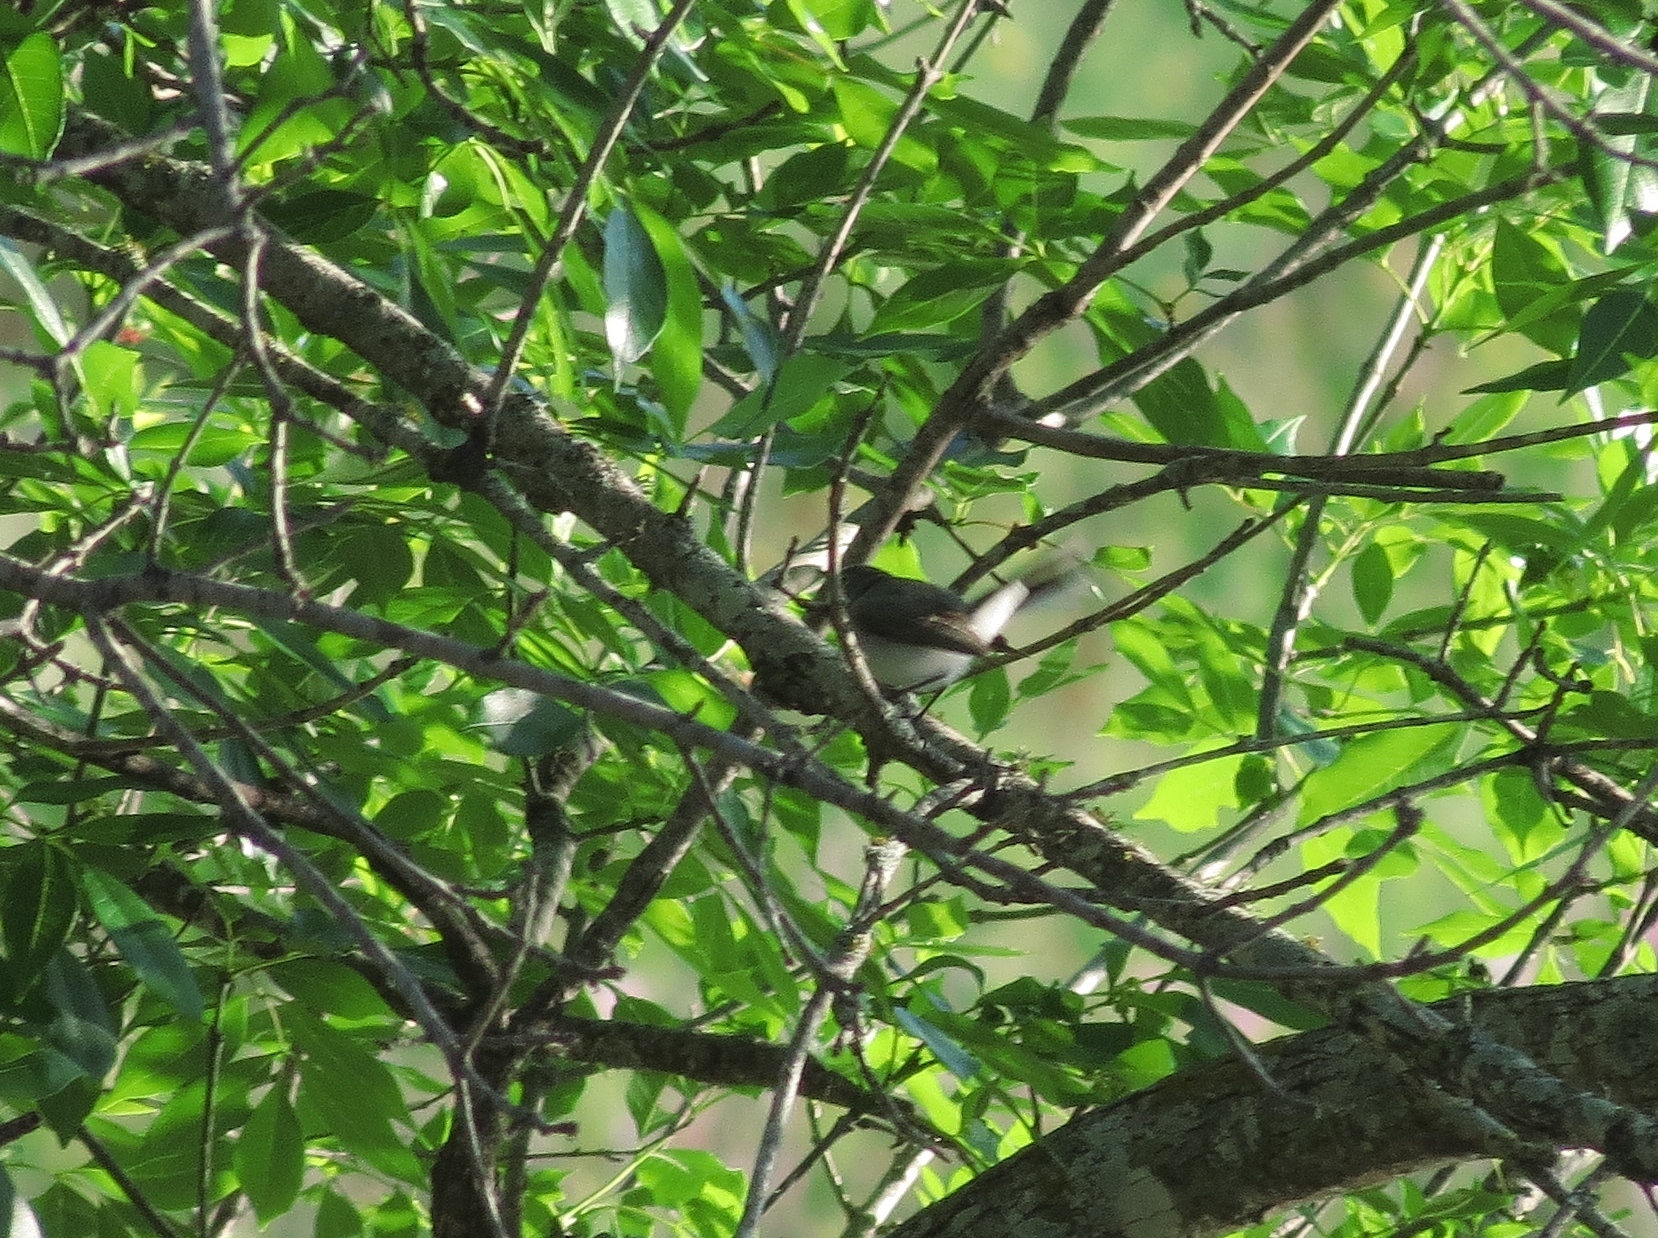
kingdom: Animalia
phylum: Chordata
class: Aves
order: Passeriformes
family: Polioptilidae
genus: Polioptila
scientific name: Polioptila caerulea
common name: Blue-gray gnatcatcher
